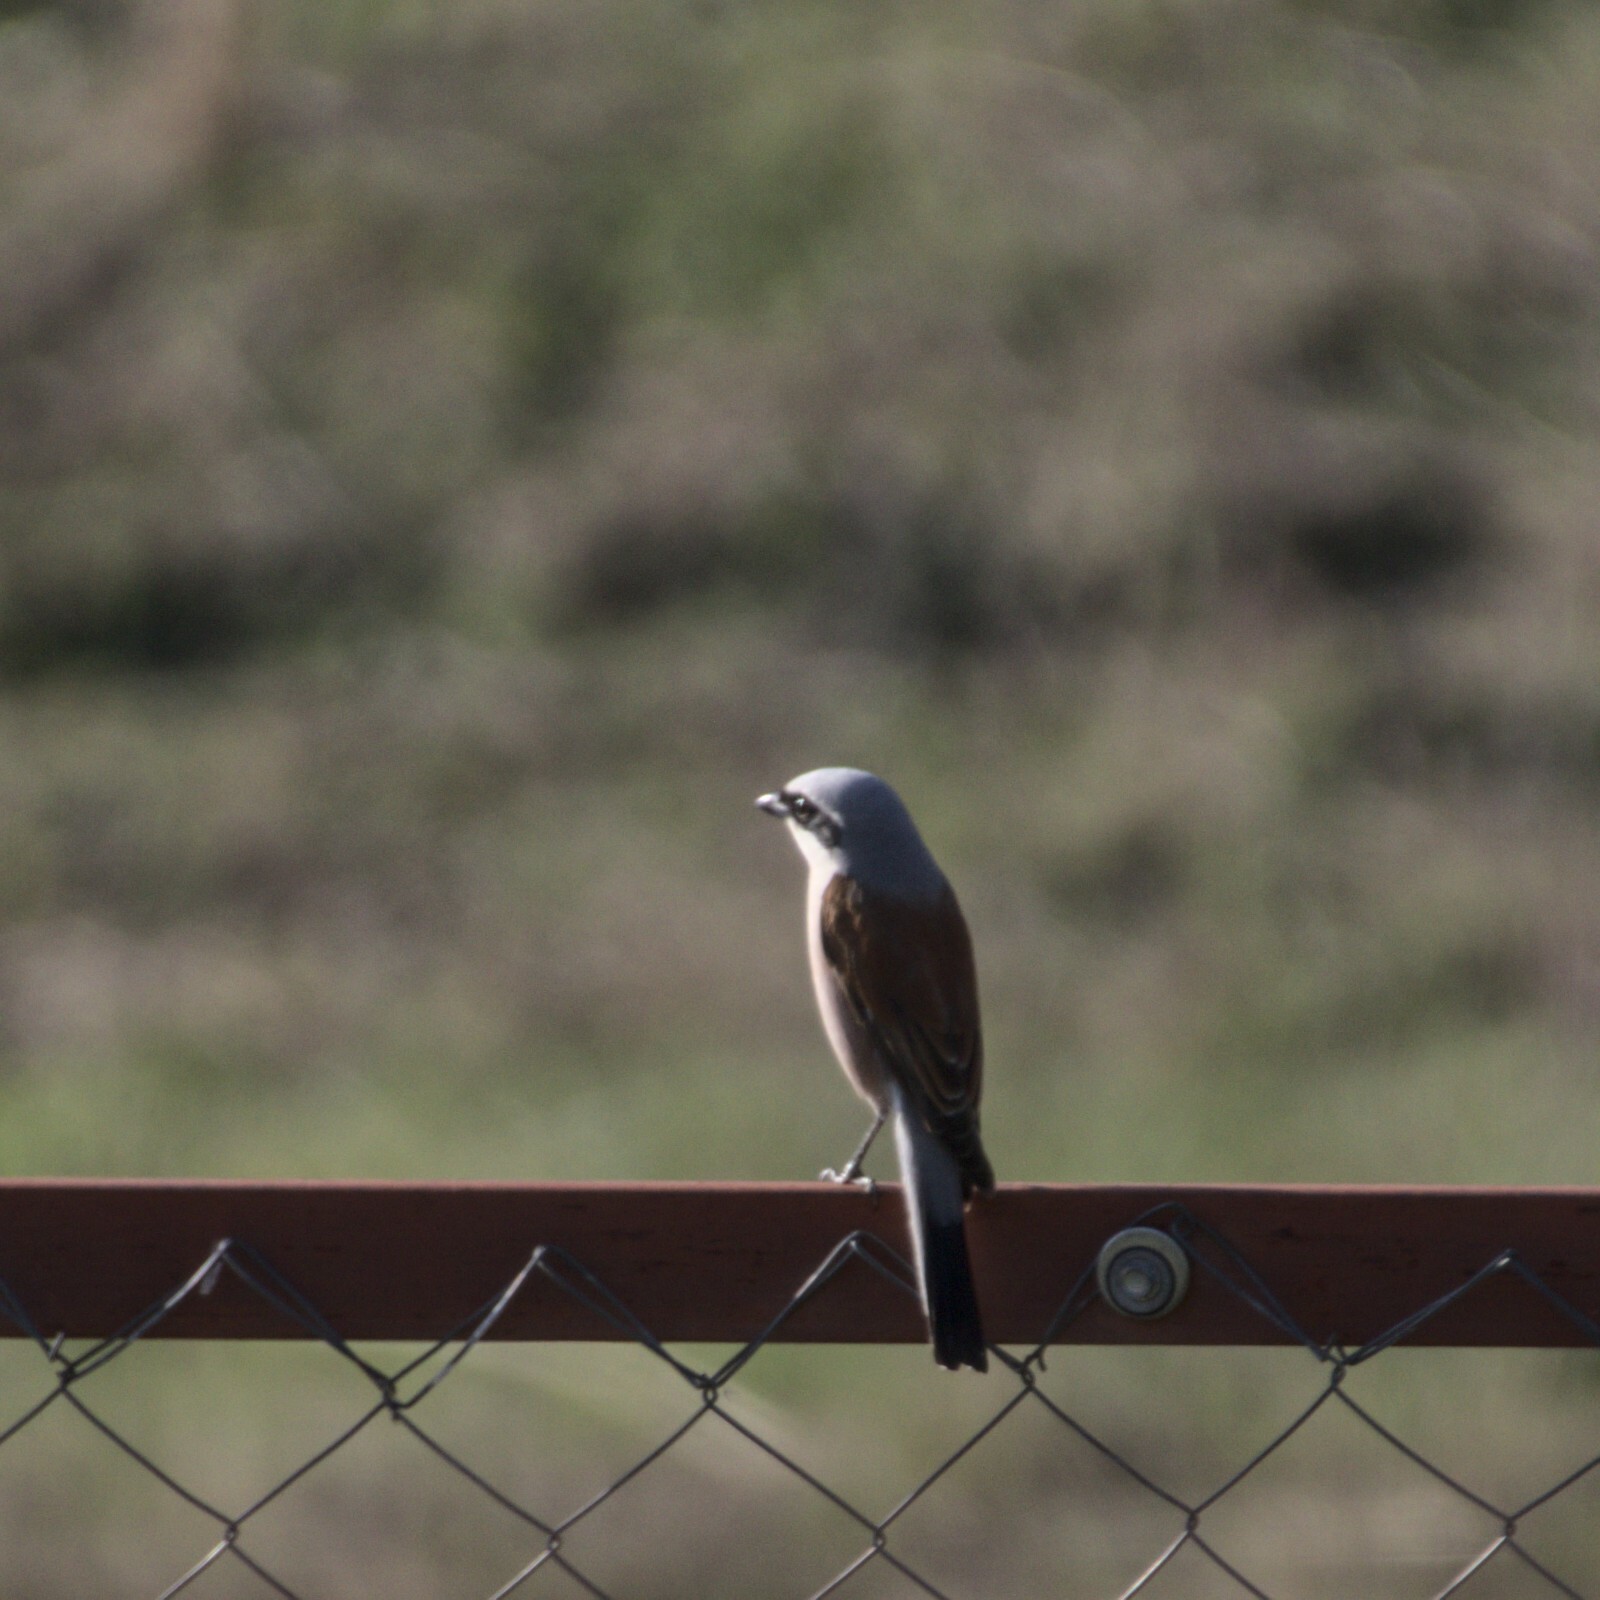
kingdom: Animalia
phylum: Chordata
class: Aves
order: Passeriformes
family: Laniidae
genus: Lanius
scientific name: Lanius collurio
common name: Red-backed shrike
